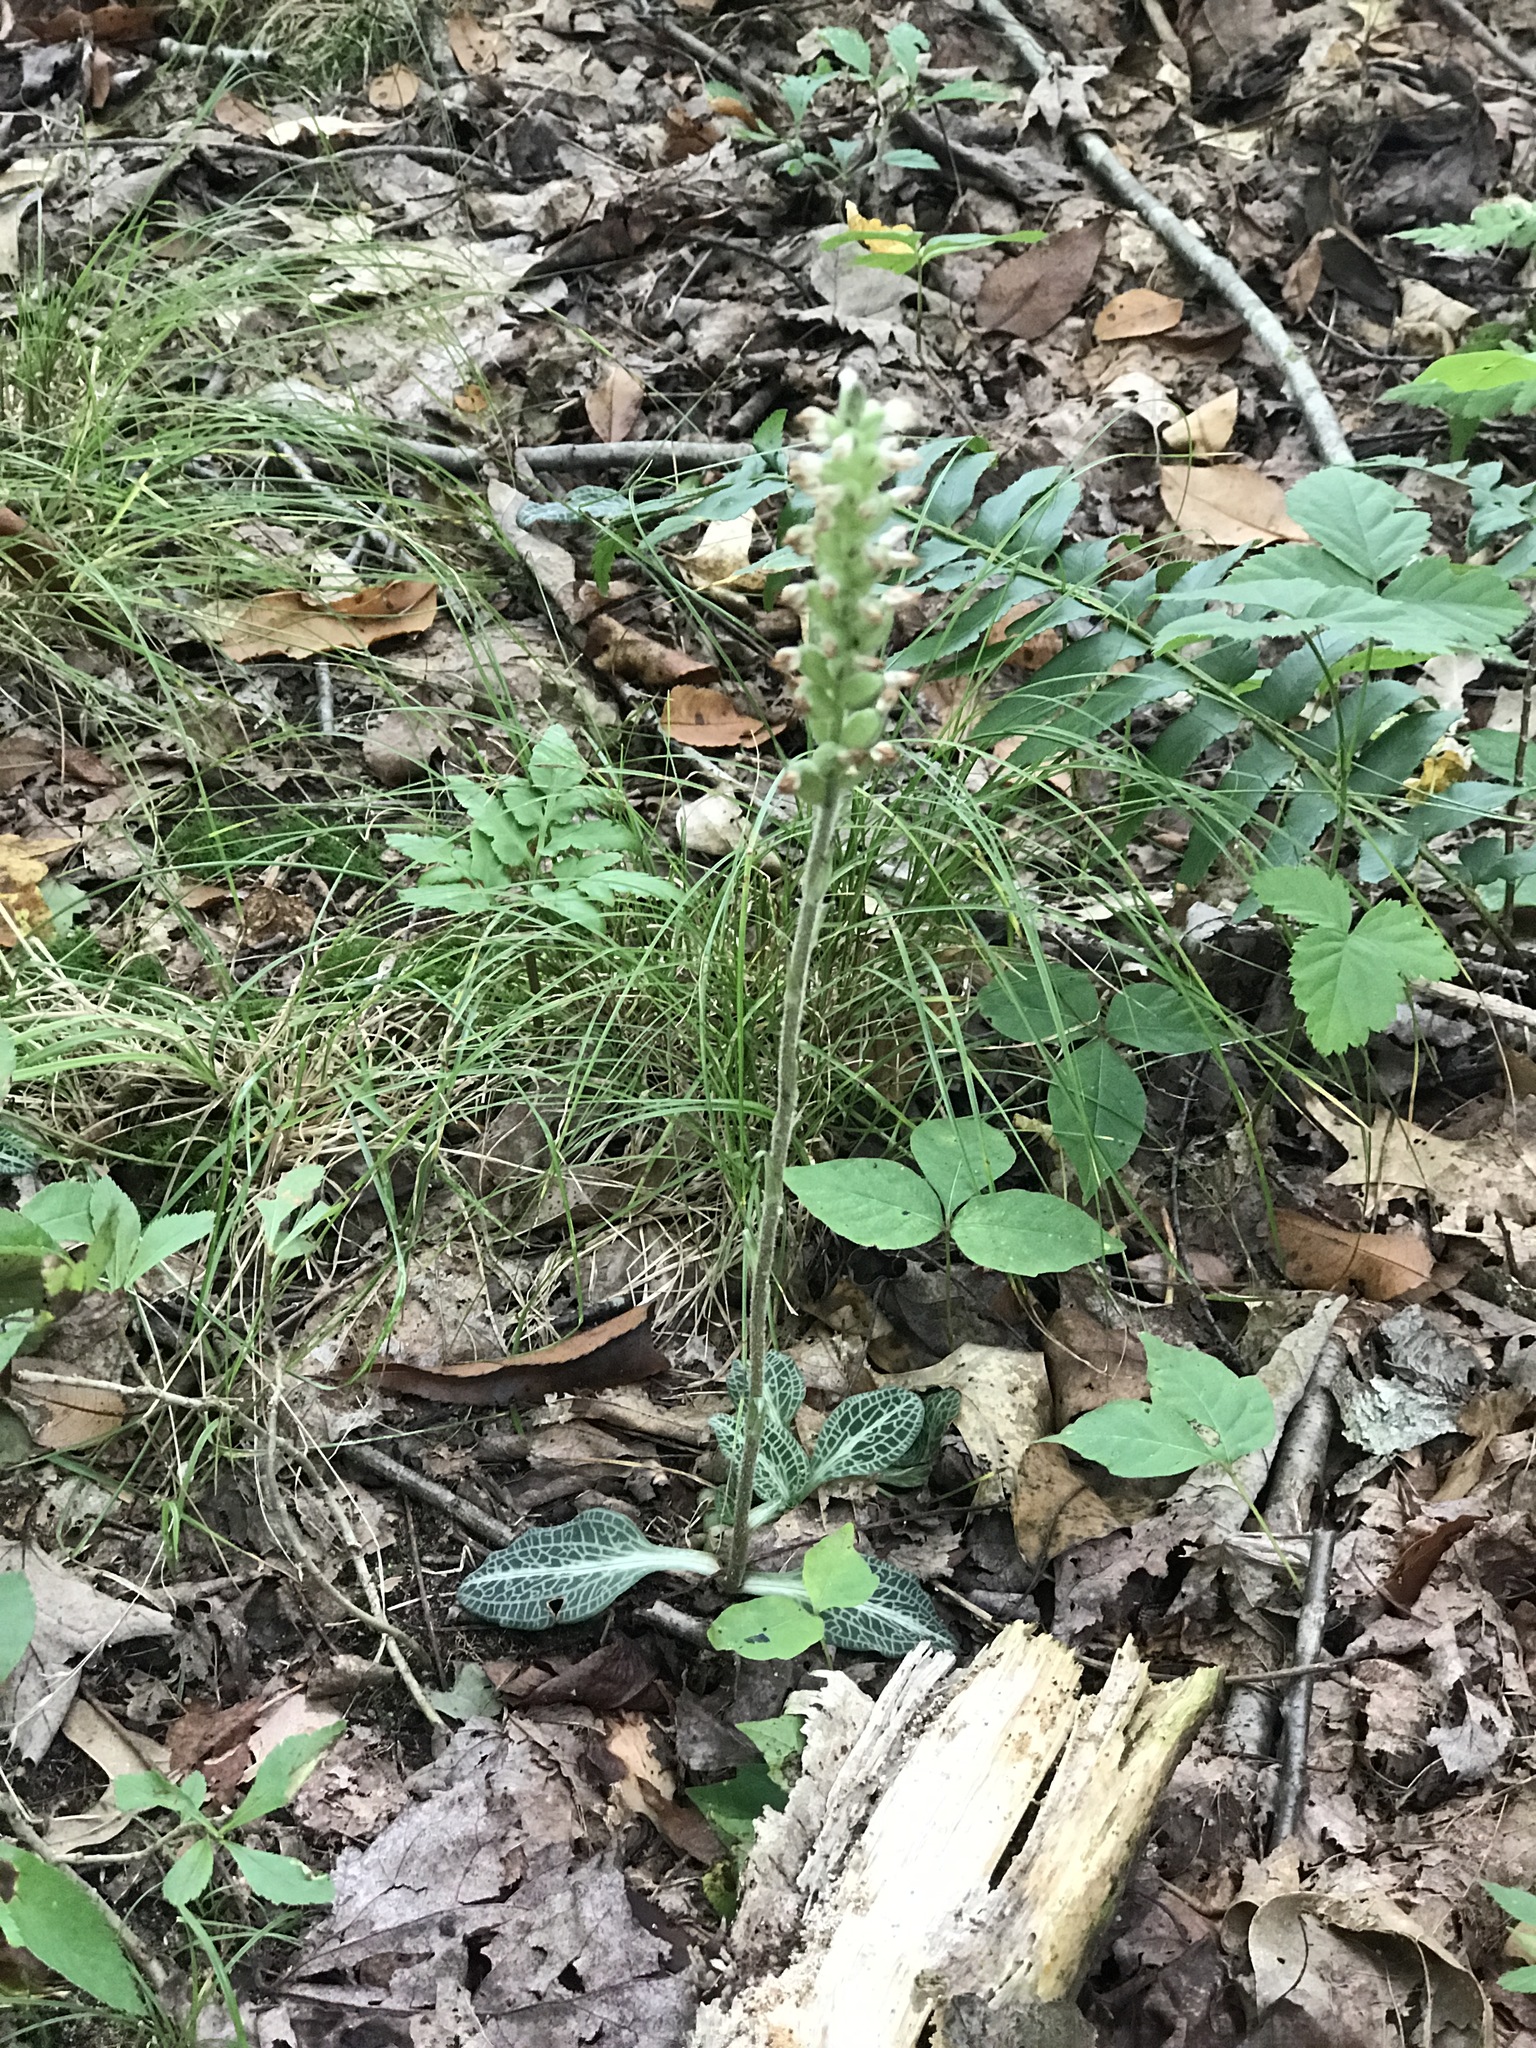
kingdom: Plantae
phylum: Tracheophyta
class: Liliopsida
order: Asparagales
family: Orchidaceae
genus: Goodyera
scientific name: Goodyera pubescens
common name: Downy rattlesnake-plantain
